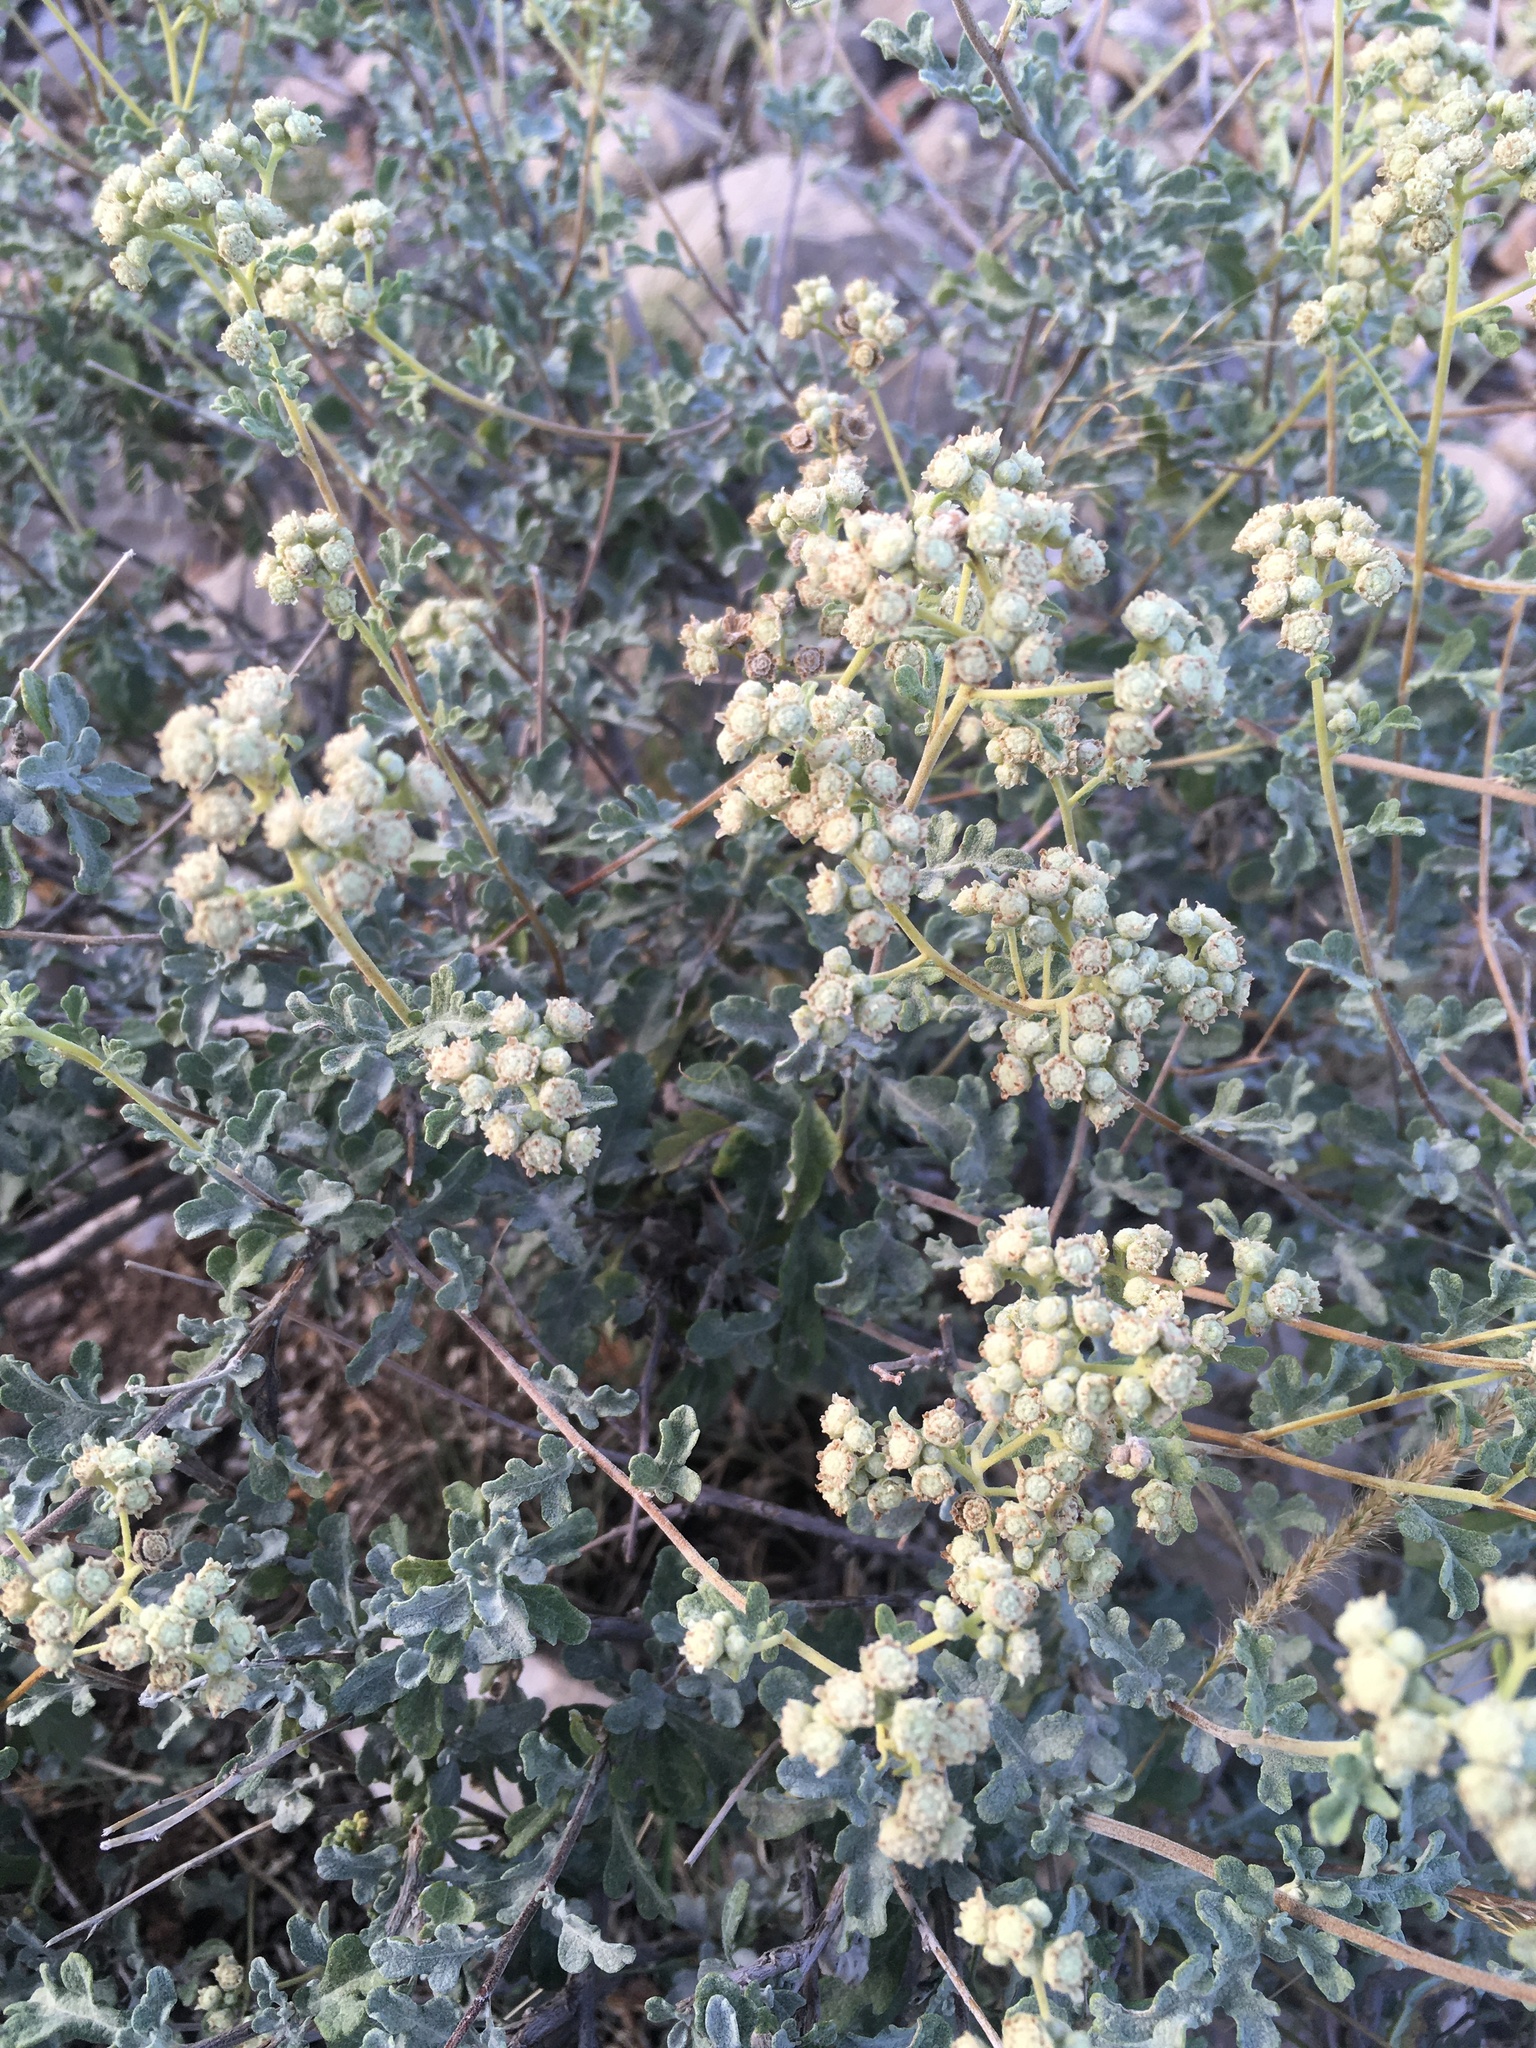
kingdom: Plantae
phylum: Tracheophyta
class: Magnoliopsida
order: Asterales
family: Asteraceae
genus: Parthenium
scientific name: Parthenium incanum
